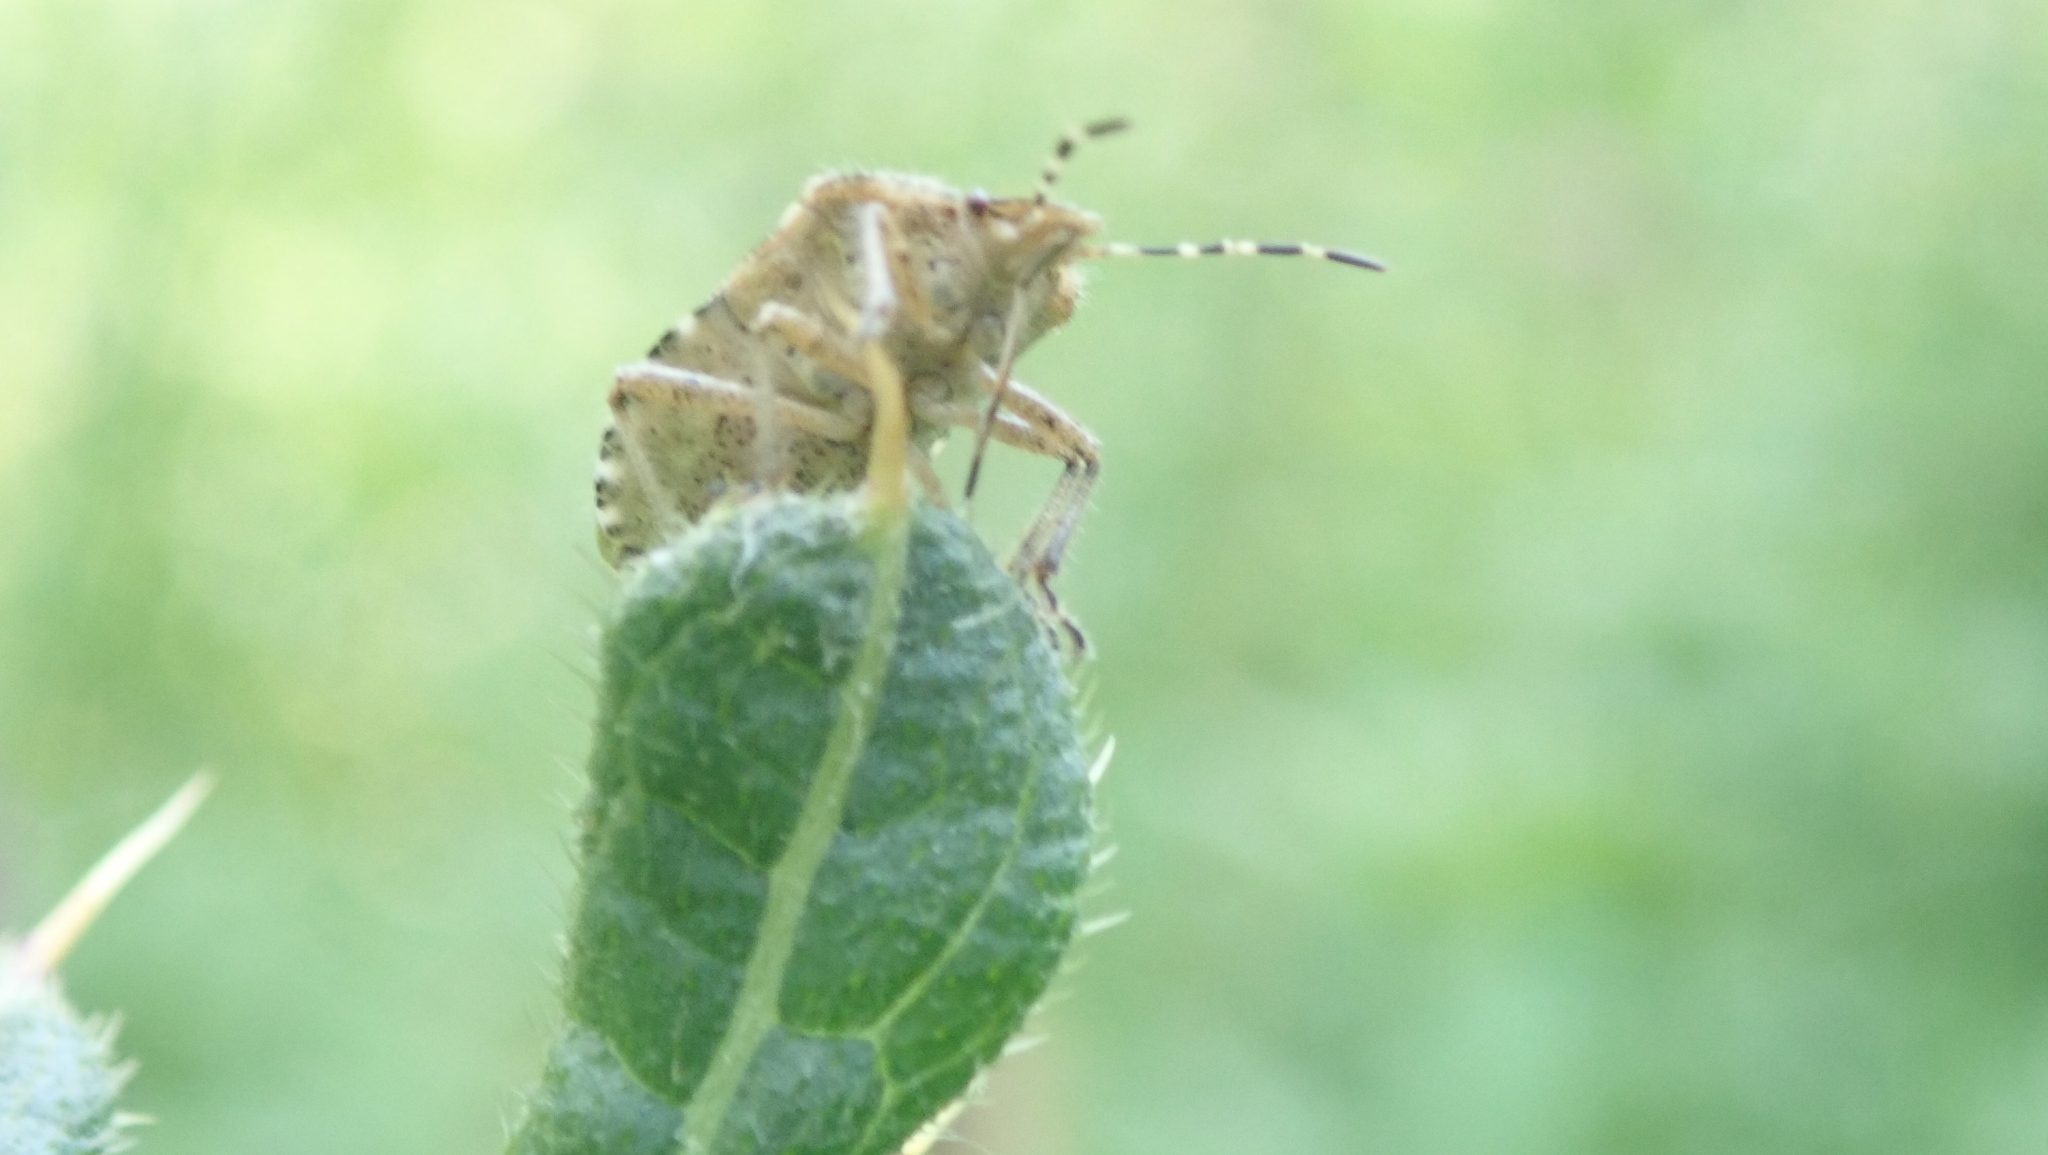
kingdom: Animalia
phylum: Arthropoda
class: Insecta
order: Hemiptera
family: Pentatomidae
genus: Dolycoris
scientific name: Dolycoris baccarum
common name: Sloe bug
